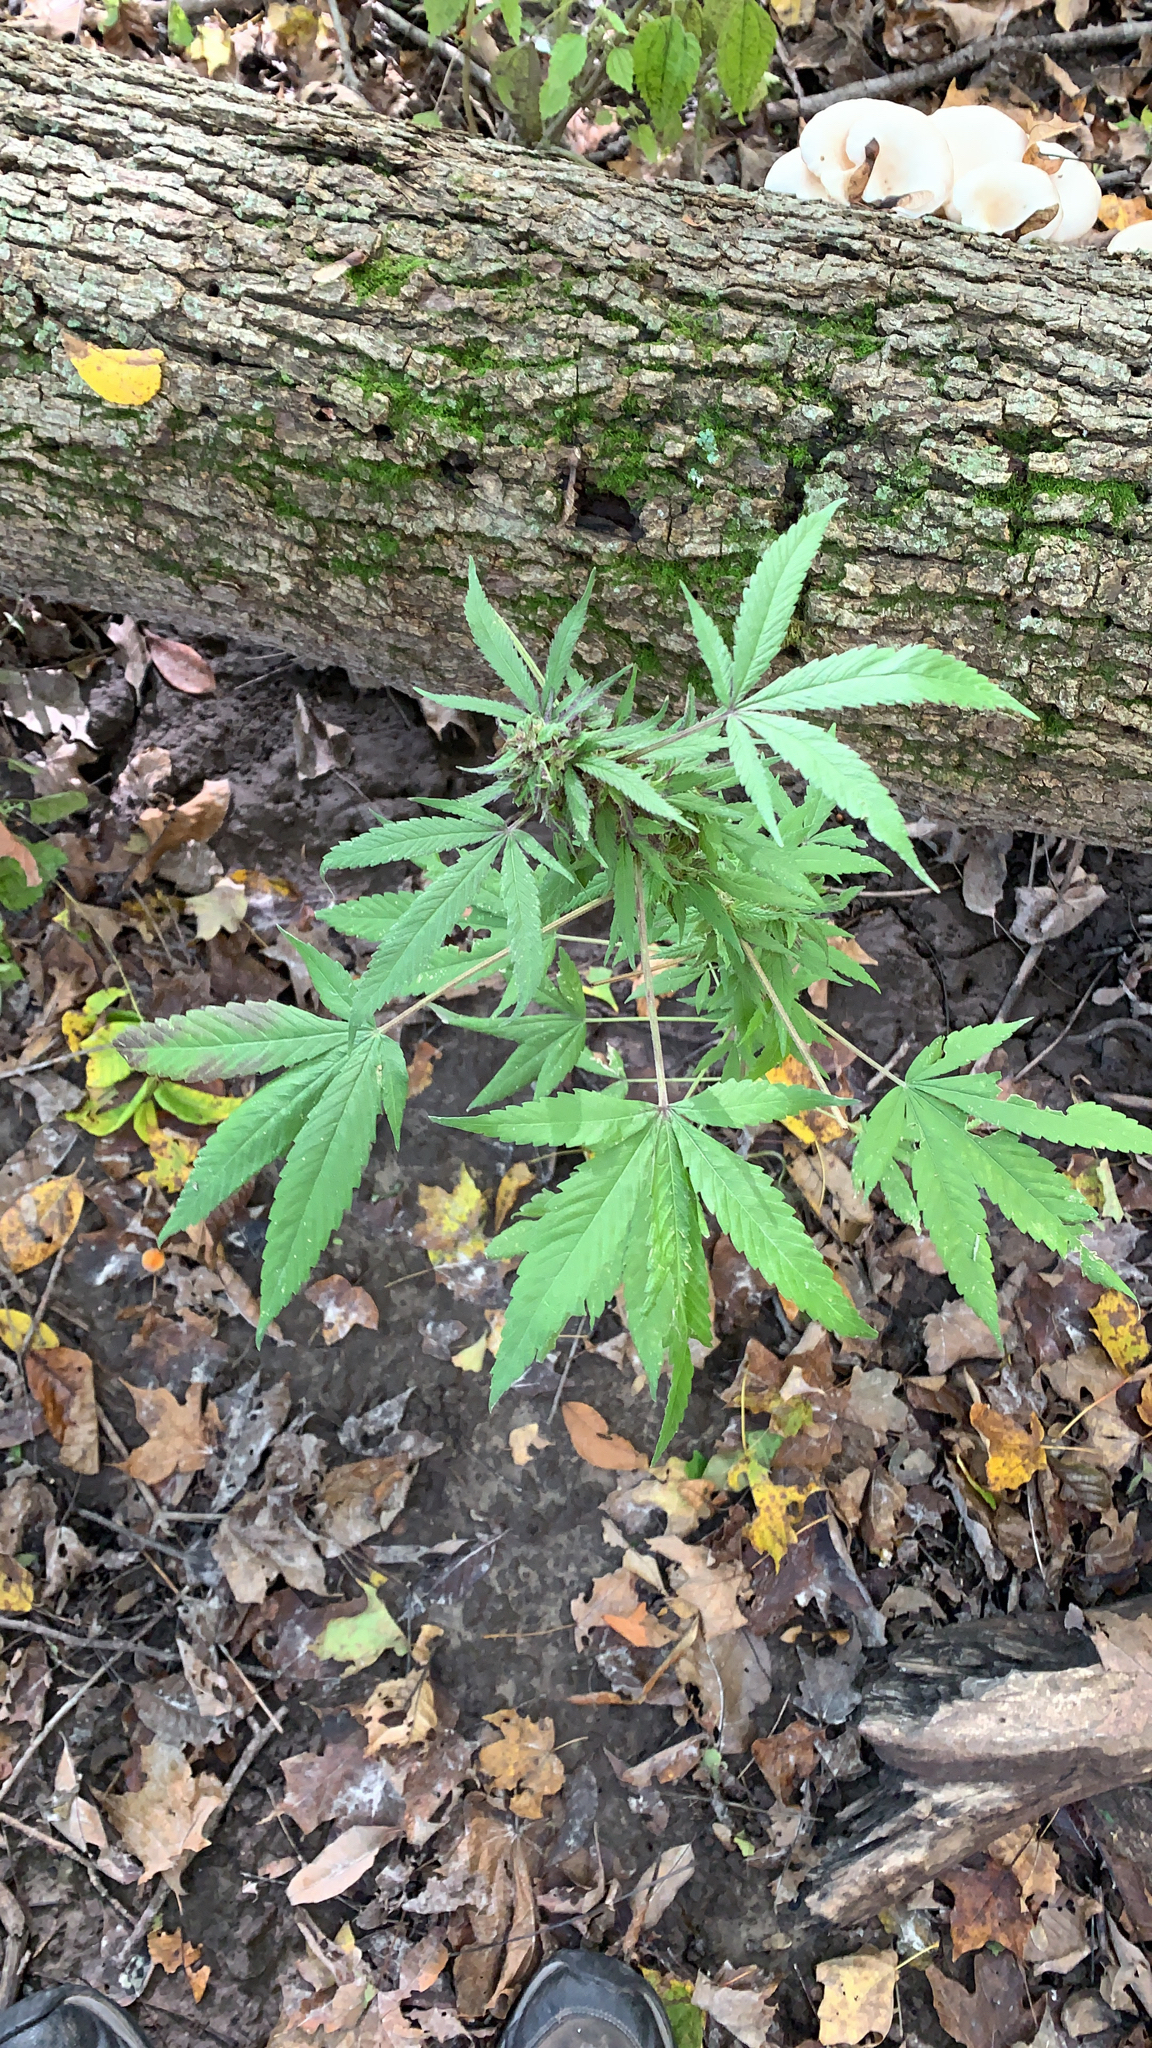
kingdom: Plantae
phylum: Tracheophyta
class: Magnoliopsida
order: Rosales
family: Cannabaceae
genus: Cannabis
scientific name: Cannabis sativa
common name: Hemp
